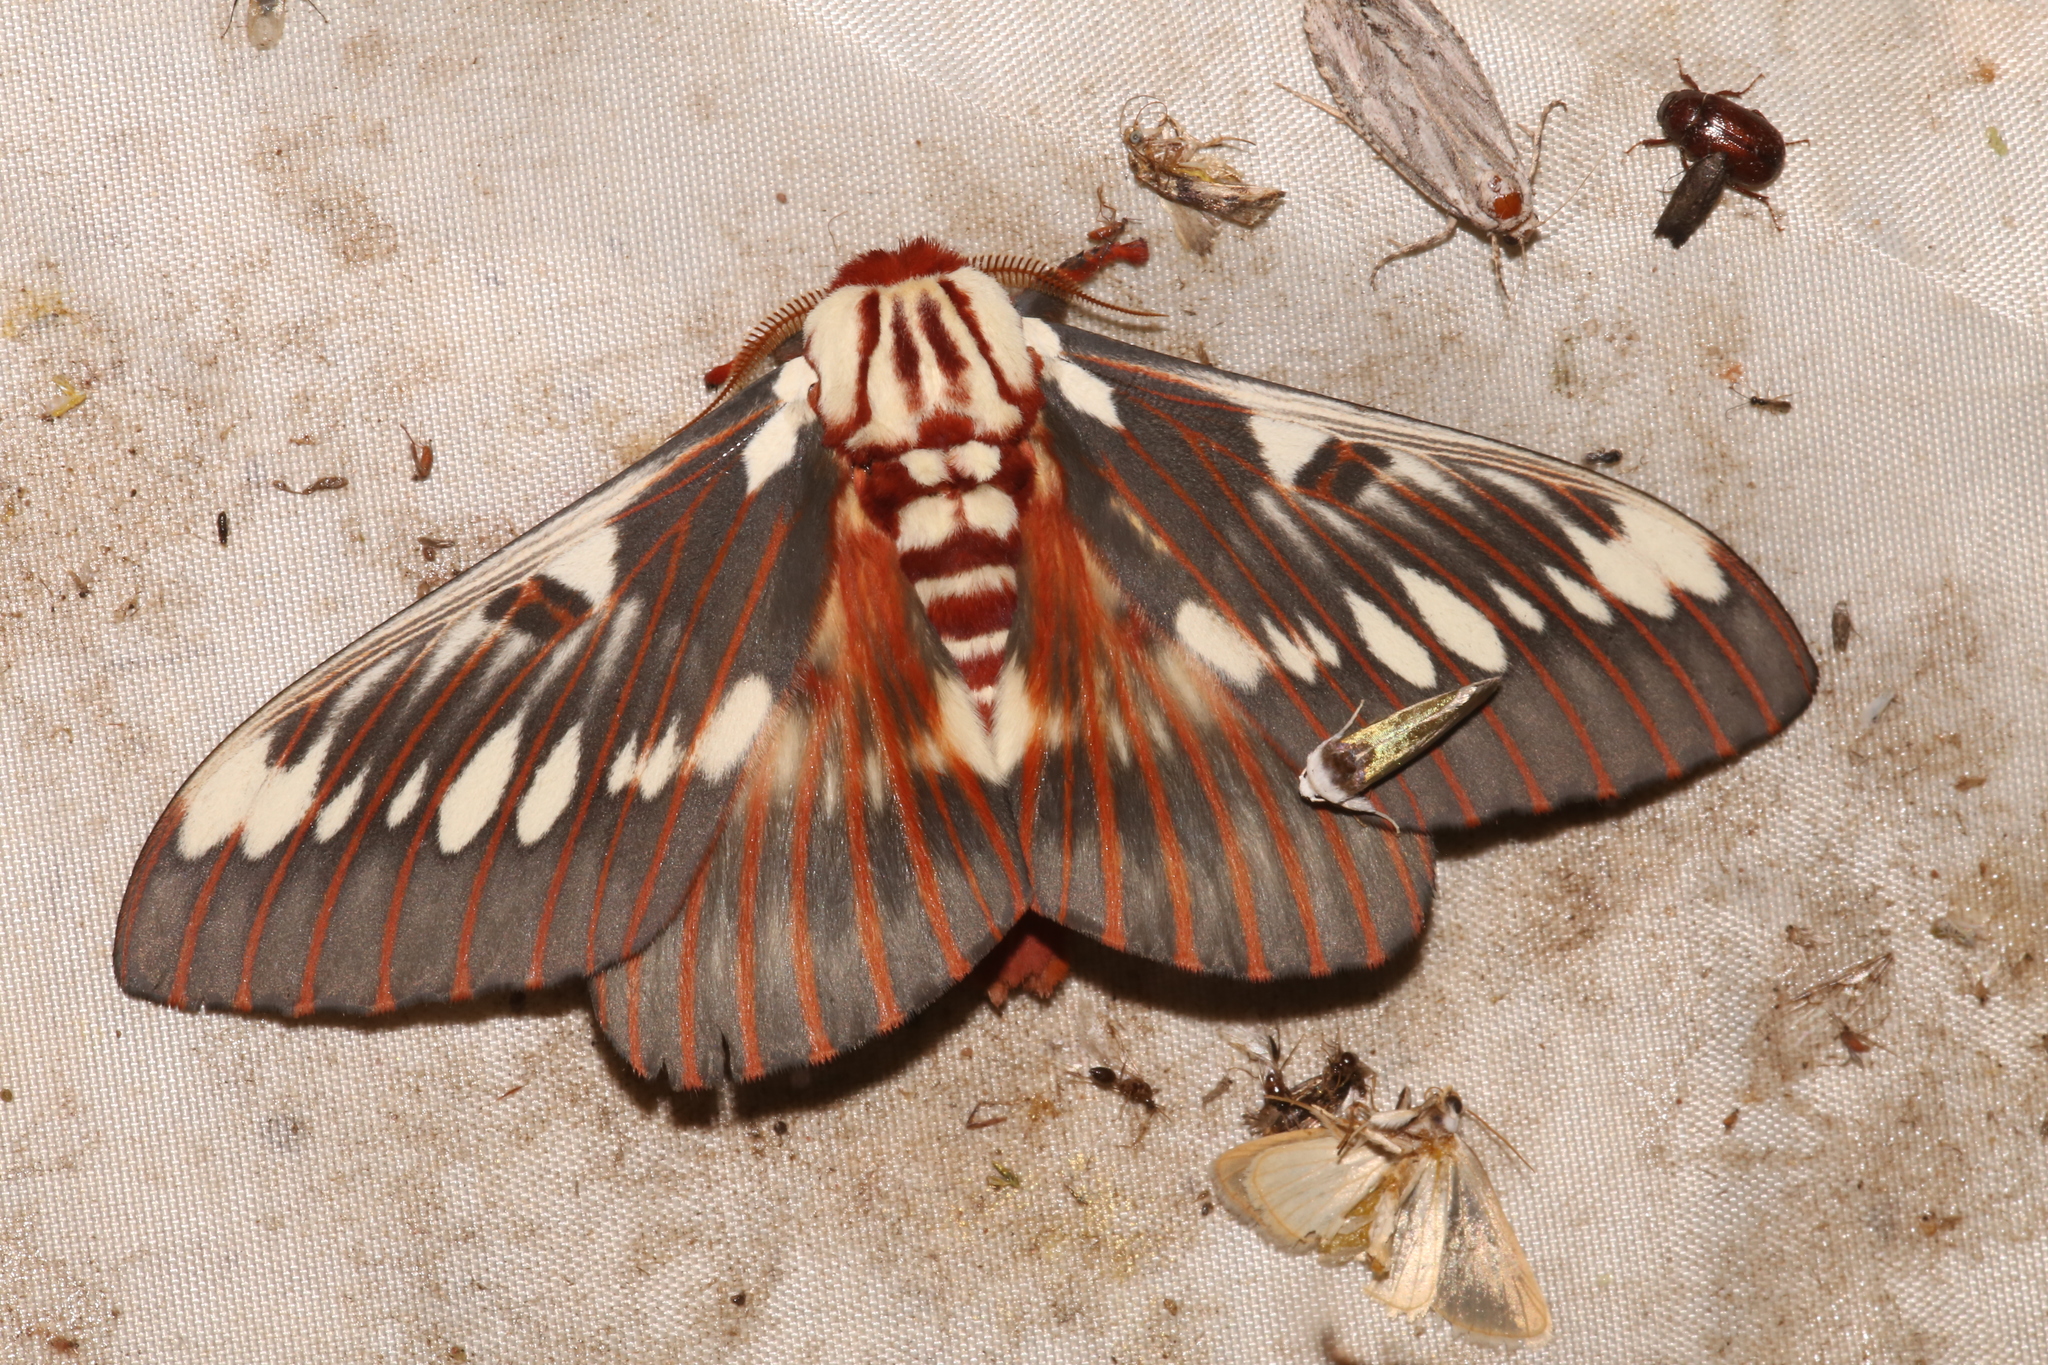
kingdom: Animalia
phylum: Arthropoda
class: Insecta
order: Lepidoptera
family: Saturniidae
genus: Citheronia
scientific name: Citheronia splendens
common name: Splendid royal moth
